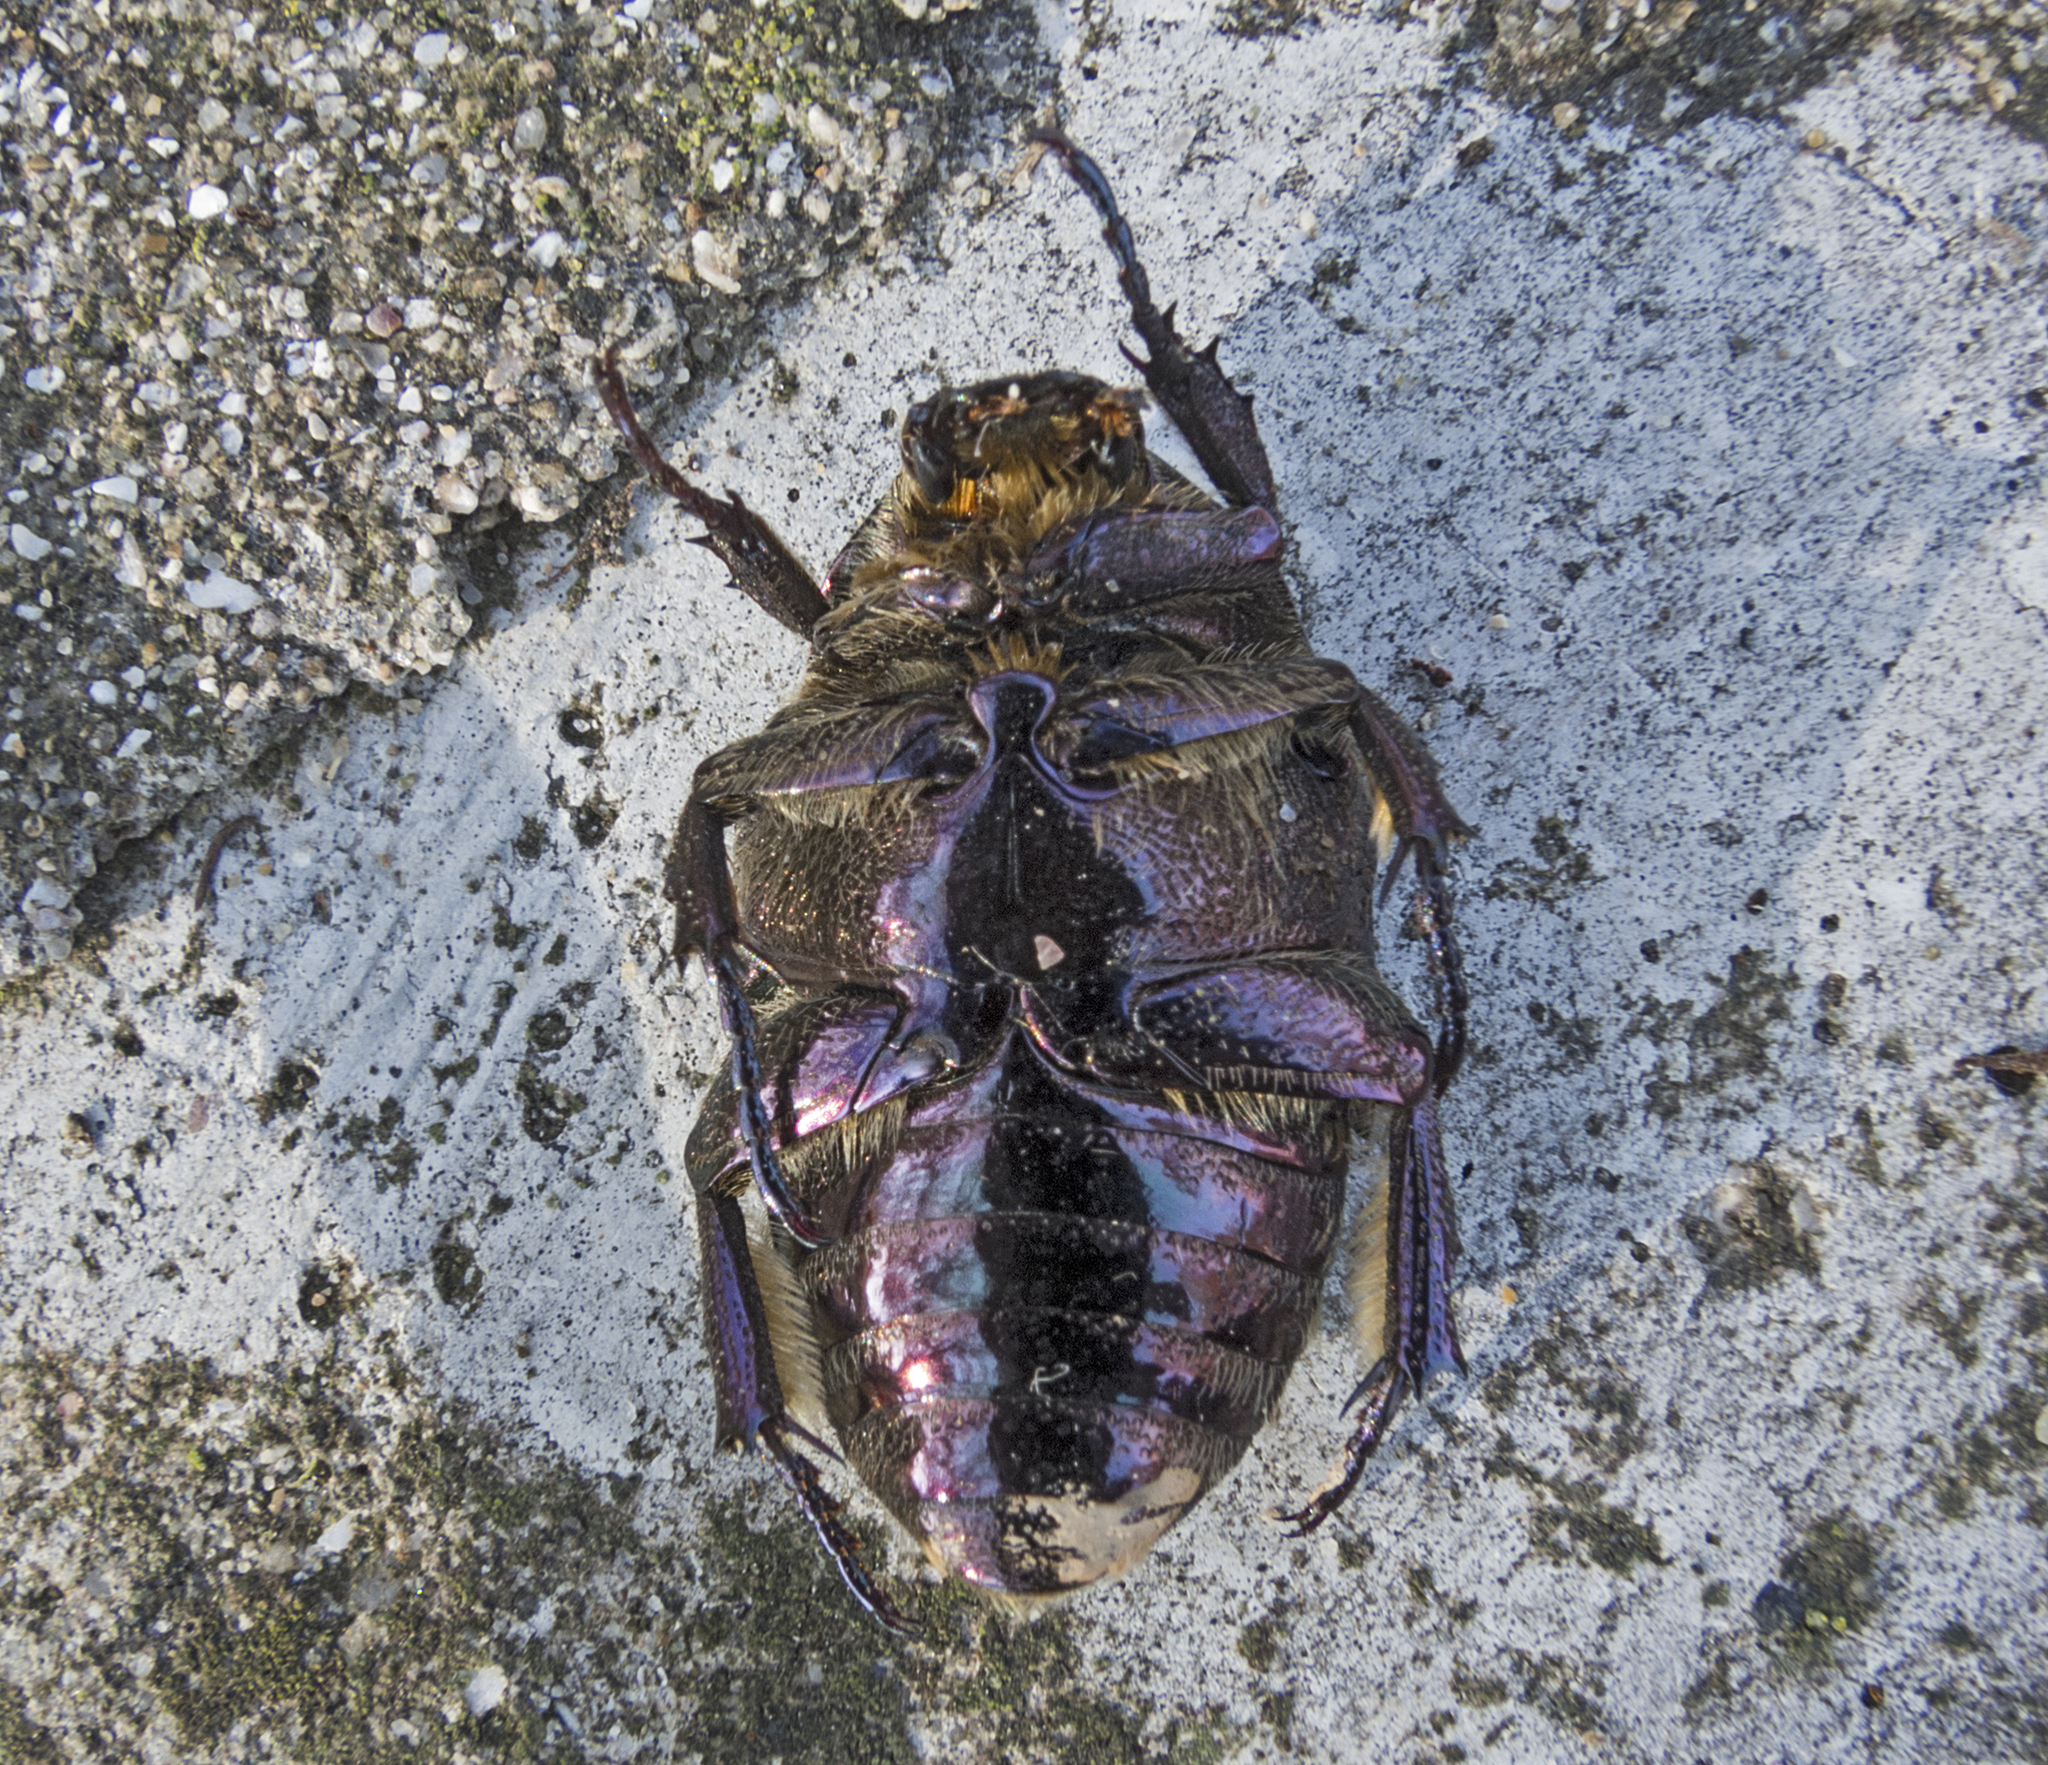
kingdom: Animalia
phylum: Arthropoda
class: Insecta
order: Coleoptera
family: Scarabaeidae
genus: Protaetia
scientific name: Protaetia cuprea
